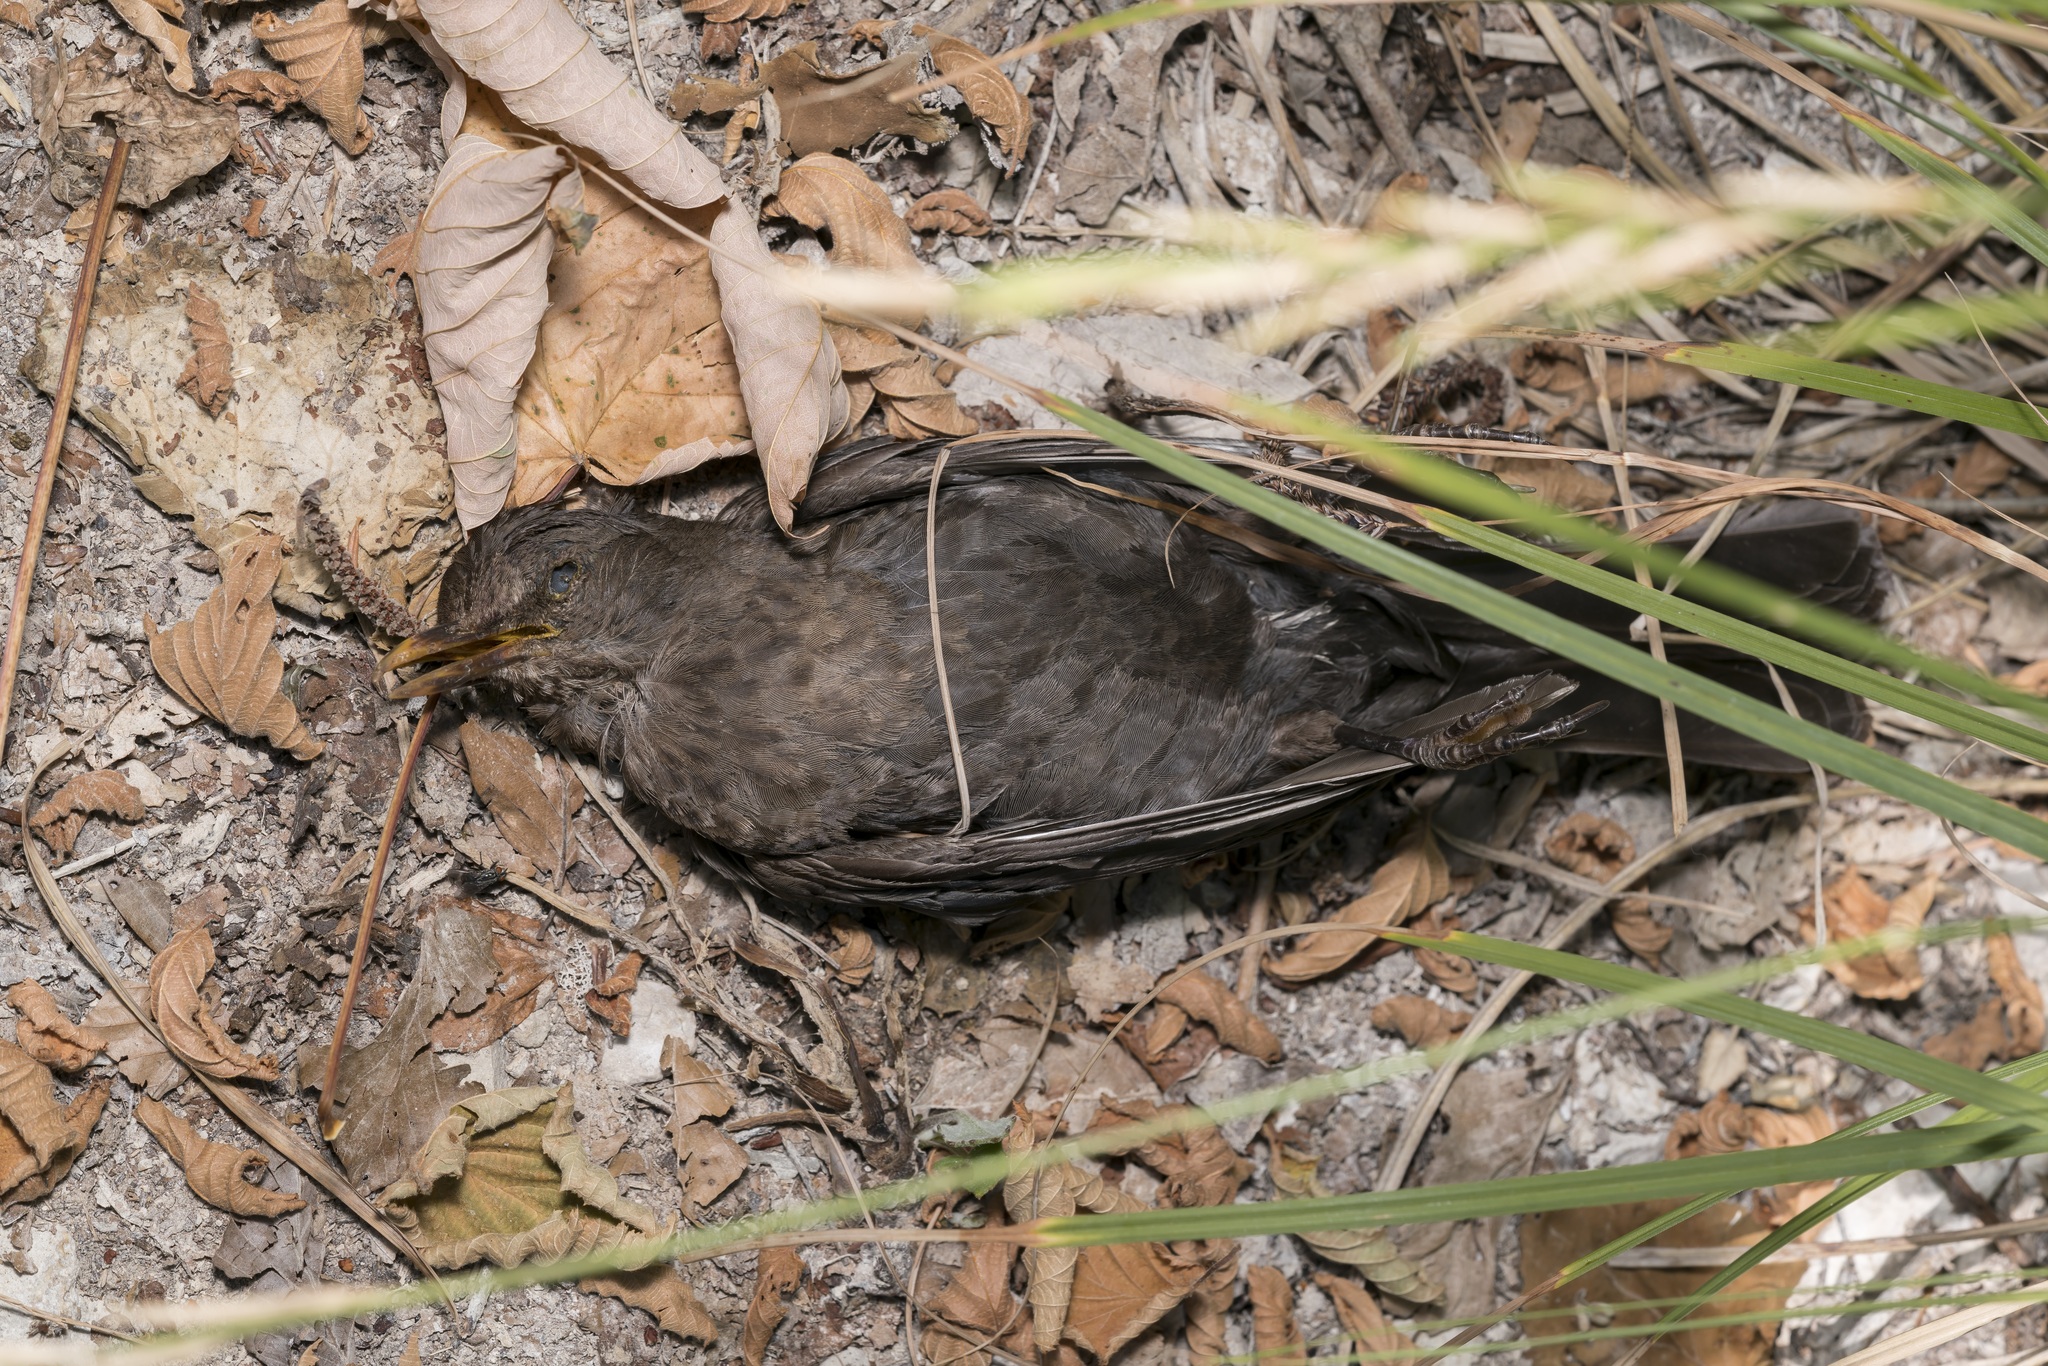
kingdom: Animalia
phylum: Chordata
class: Aves
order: Passeriformes
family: Turdidae
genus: Turdus
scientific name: Turdus merula
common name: Common blackbird
